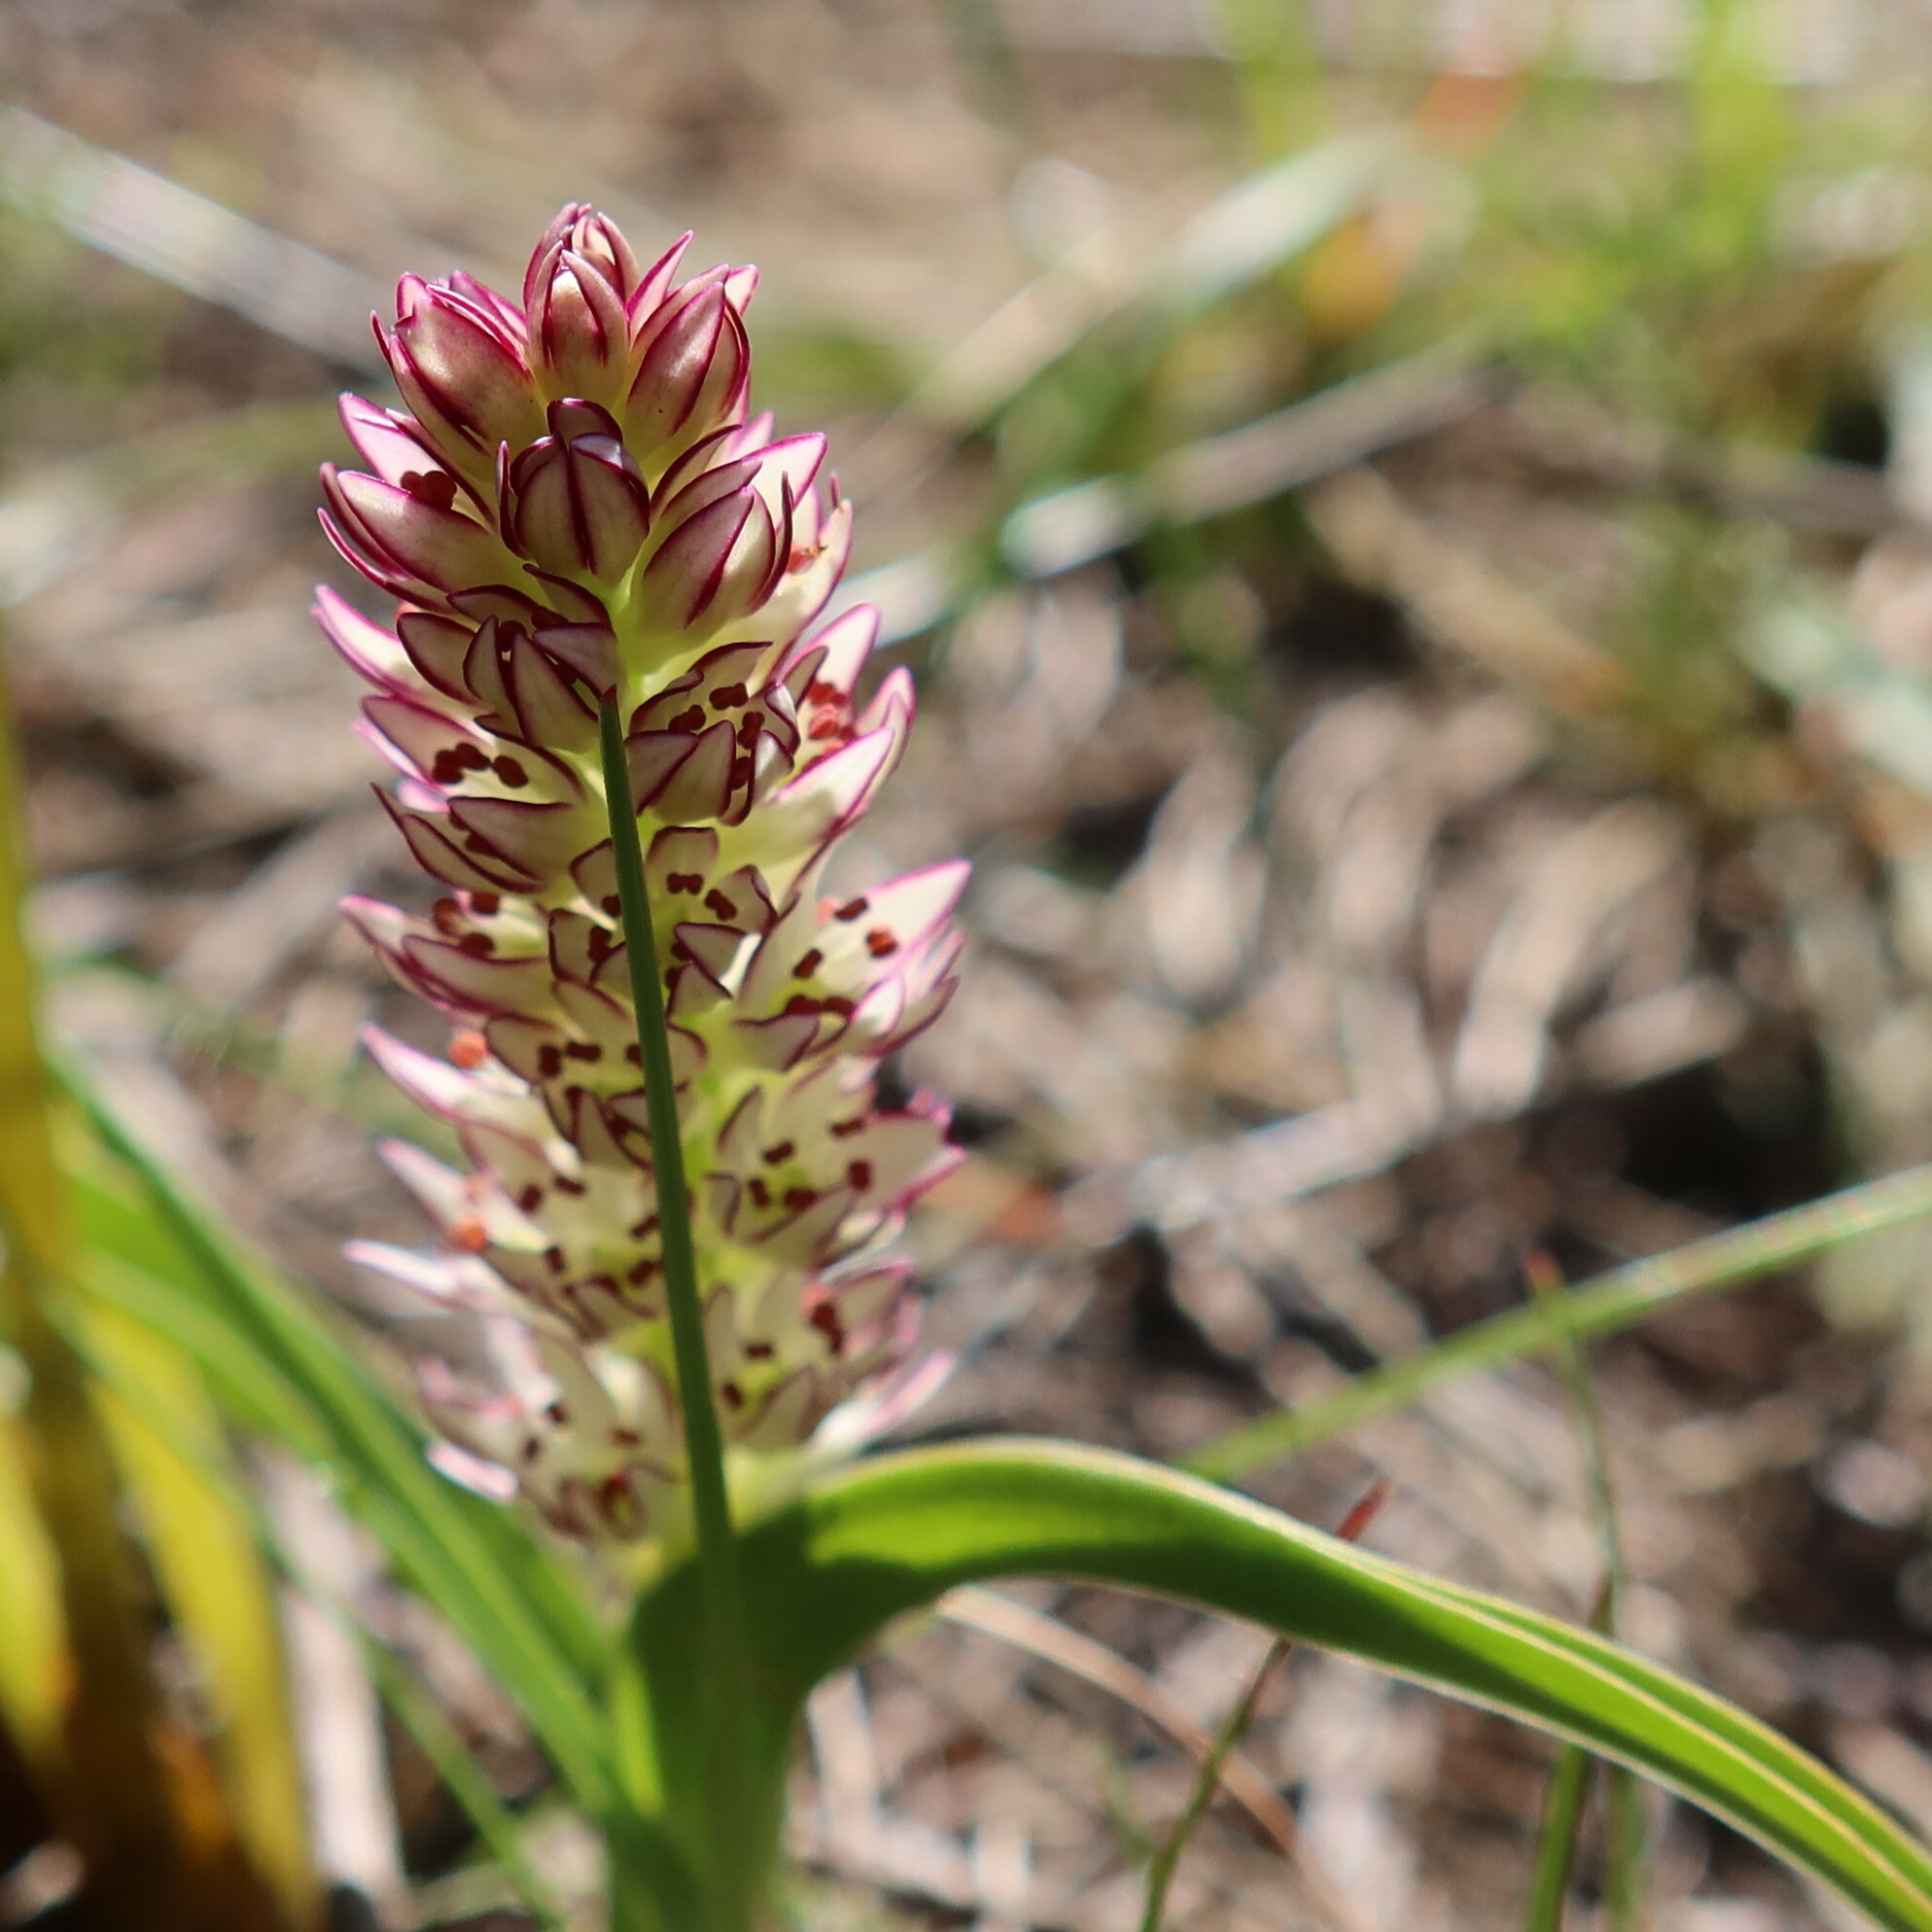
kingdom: Plantae
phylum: Tracheophyta
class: Liliopsida
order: Liliales
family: Colchicaceae
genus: Wurmbea
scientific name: Wurmbea spicata
